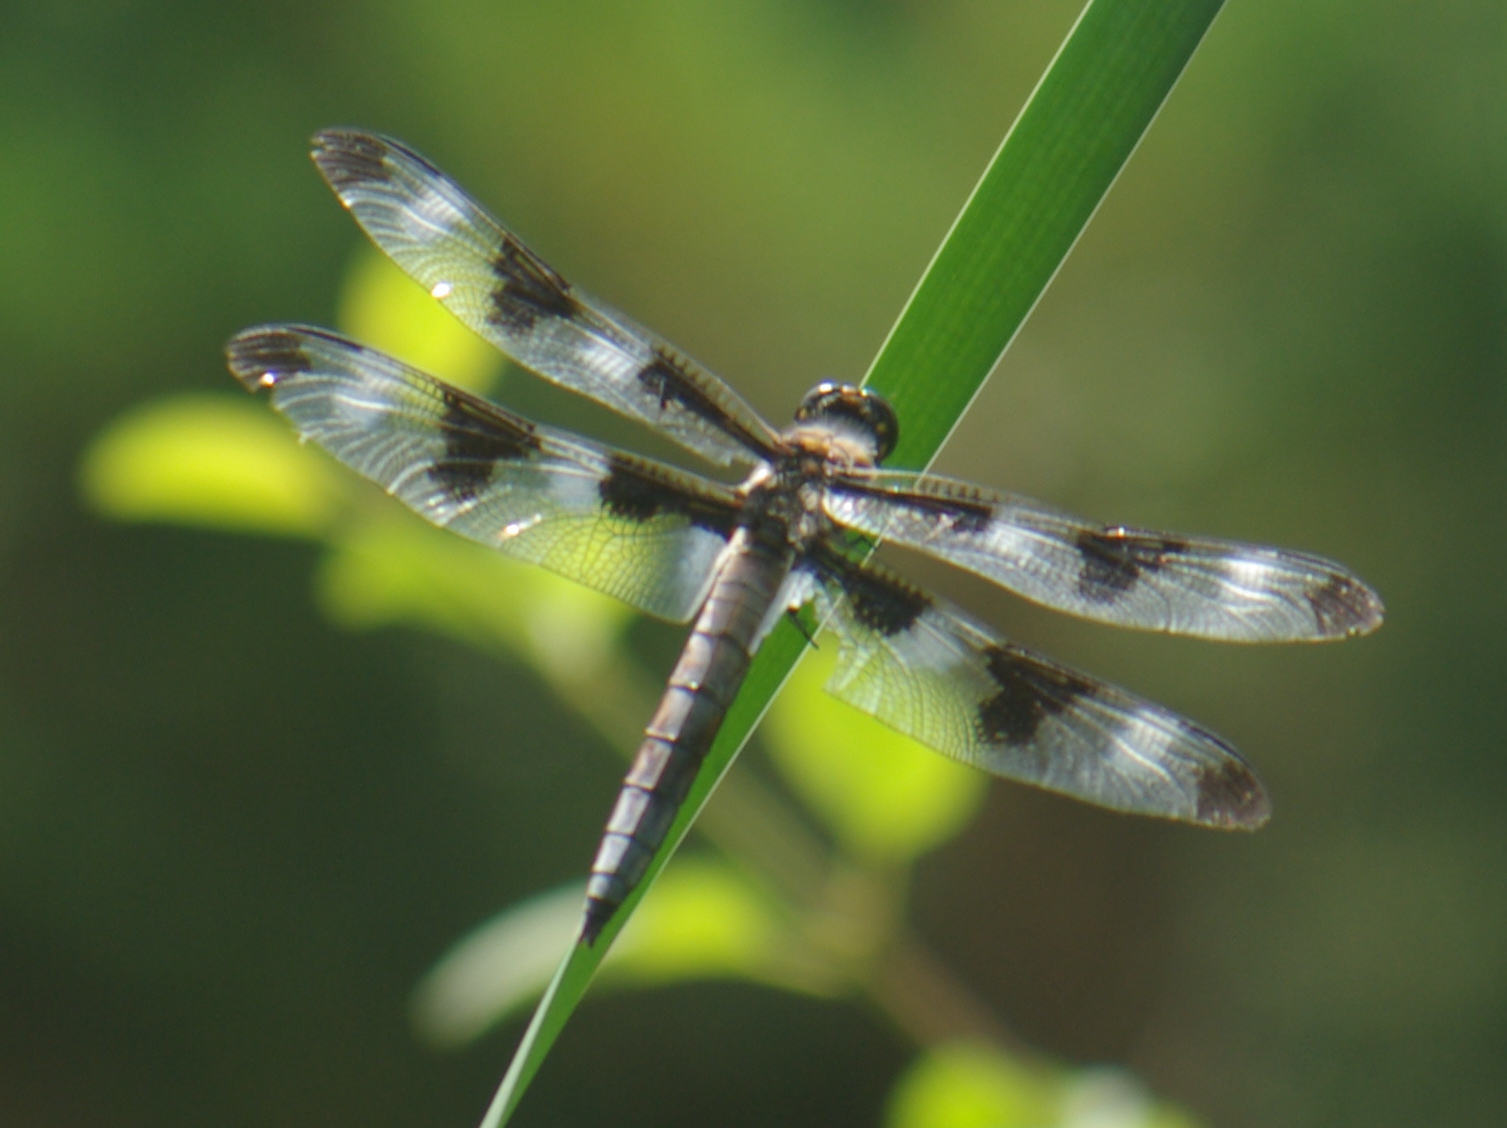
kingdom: Animalia
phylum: Arthropoda
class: Insecta
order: Odonata
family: Libellulidae
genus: Libellula
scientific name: Libellula pulchella
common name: Twelve-spotted skimmer
